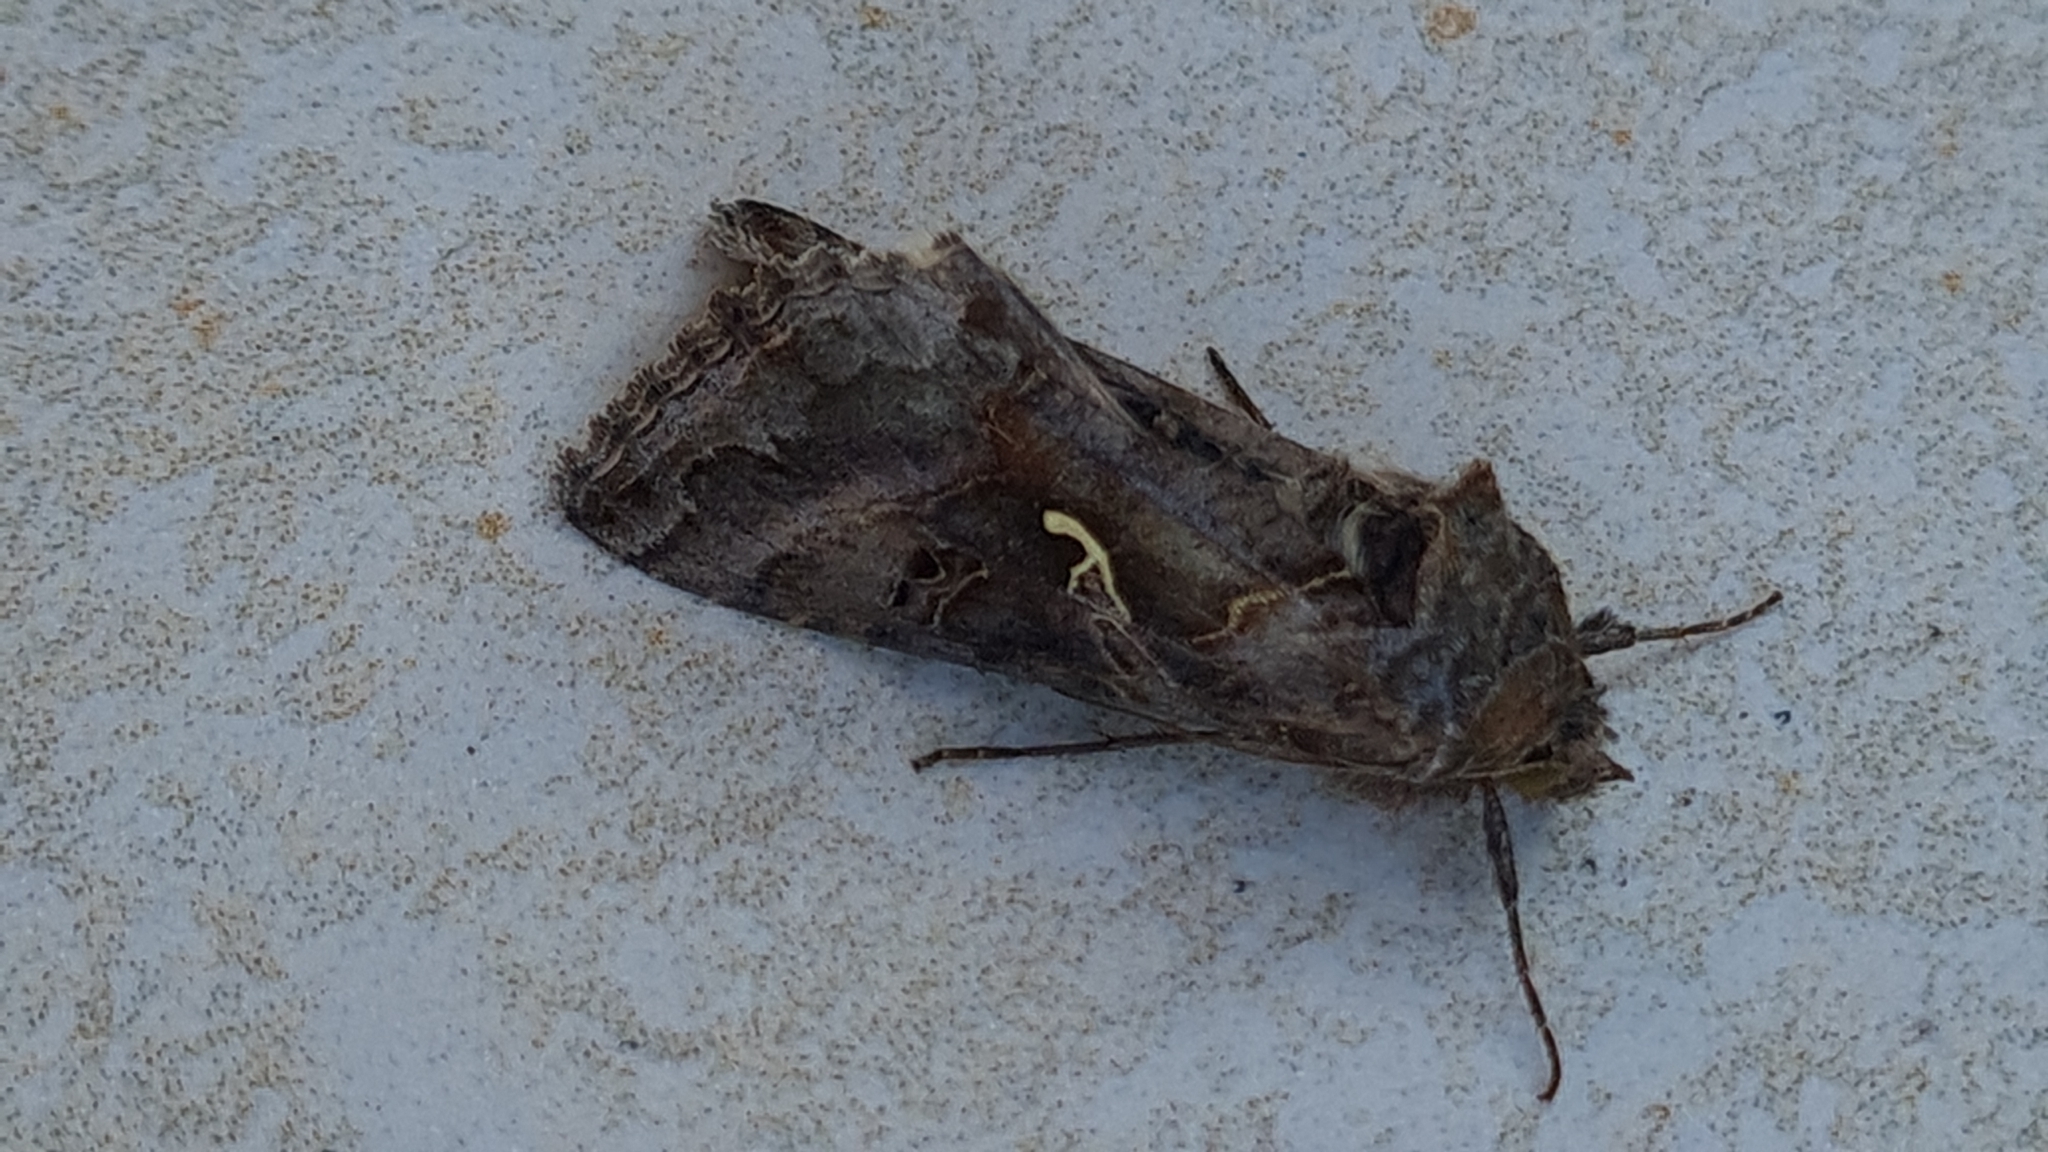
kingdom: Animalia
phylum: Arthropoda
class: Insecta
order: Lepidoptera
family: Noctuidae
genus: Autographa
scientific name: Autographa gamma
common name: Silver y
